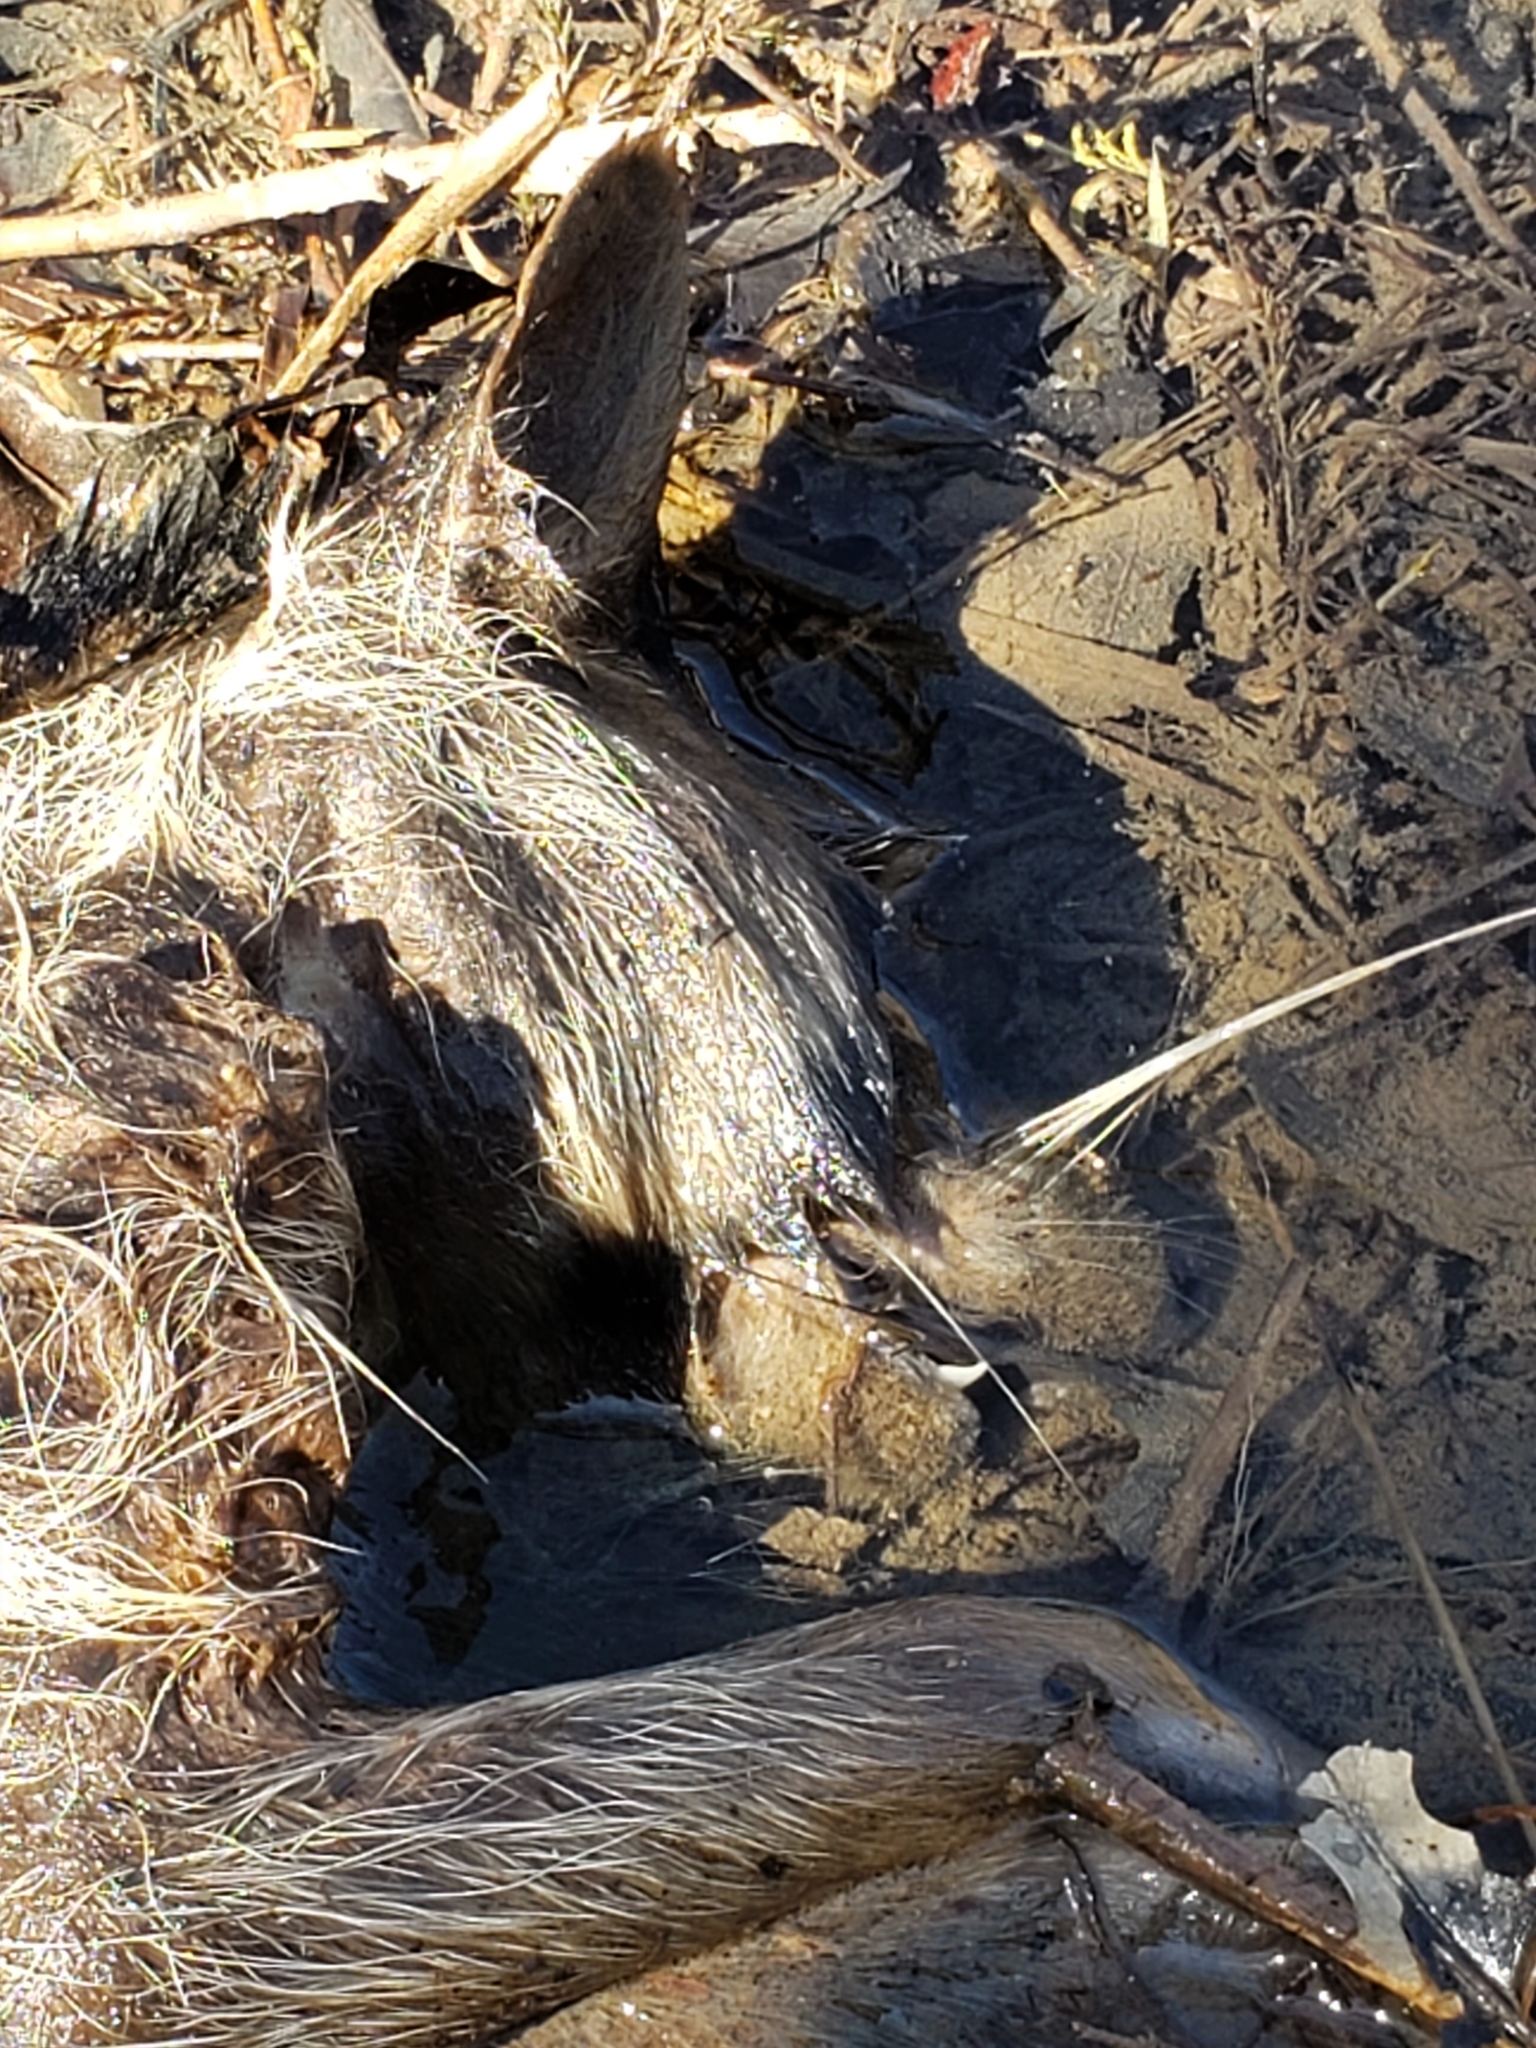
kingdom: Animalia
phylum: Chordata
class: Mammalia
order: Carnivora
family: Procyonidae
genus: Procyon
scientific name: Procyon lotor
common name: Raccoon
